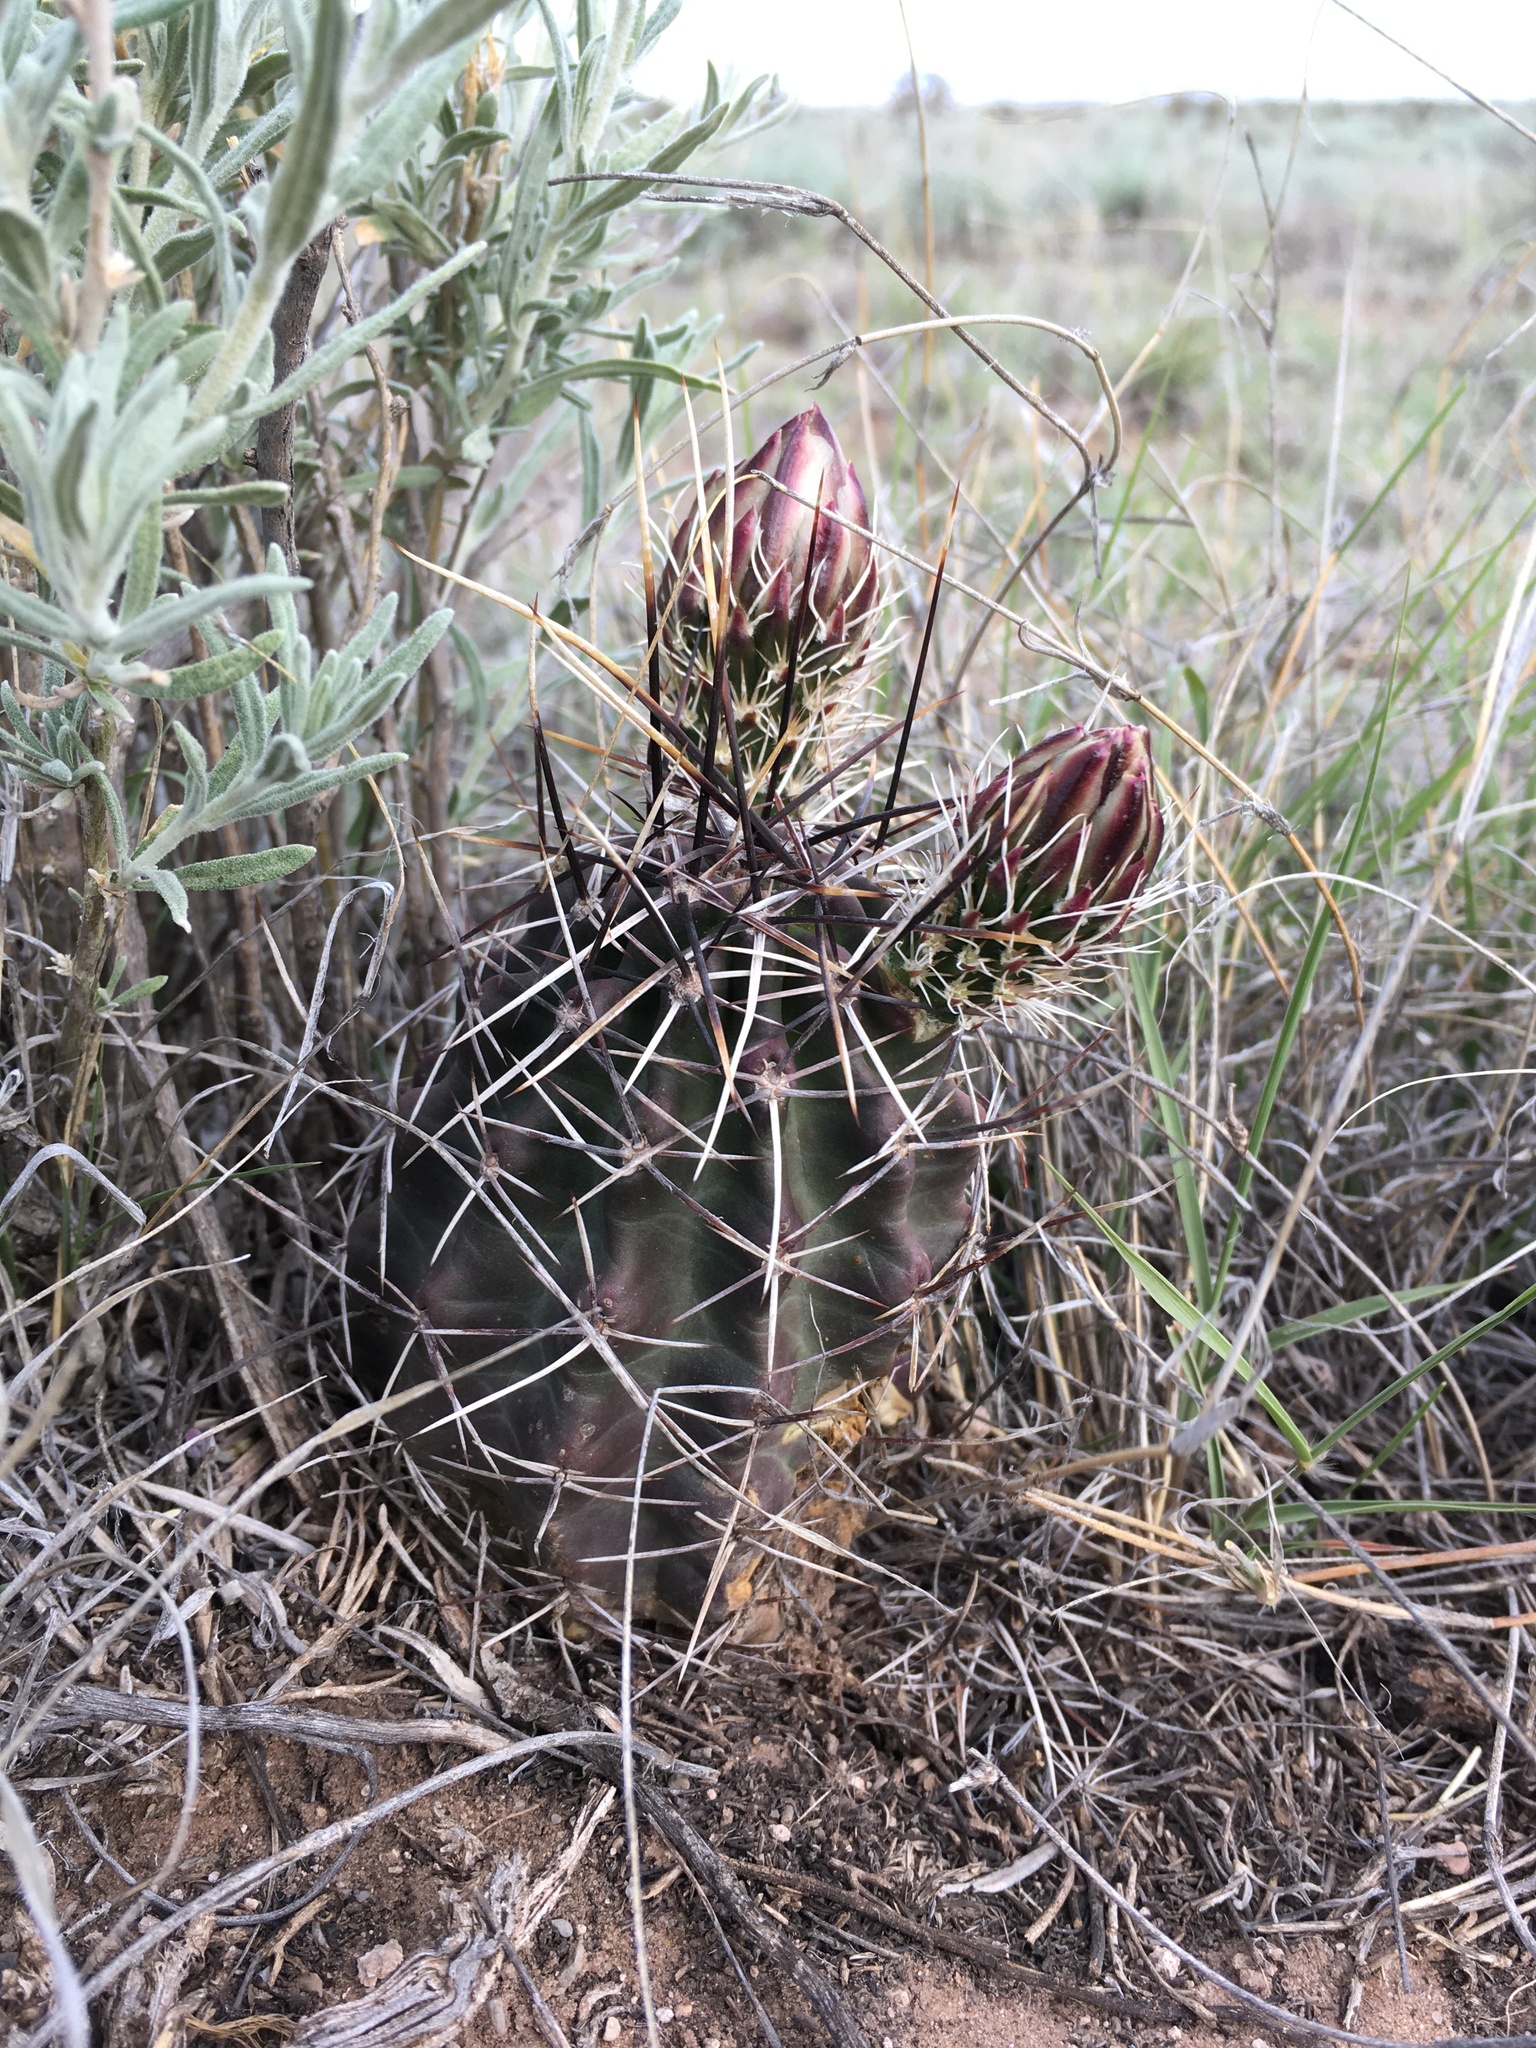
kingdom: Plantae
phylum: Tracheophyta
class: Magnoliopsida
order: Caryophyllales
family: Cactaceae
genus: Echinocereus
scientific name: Echinocereus fendleri
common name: Fendler's hedgehog cactus
